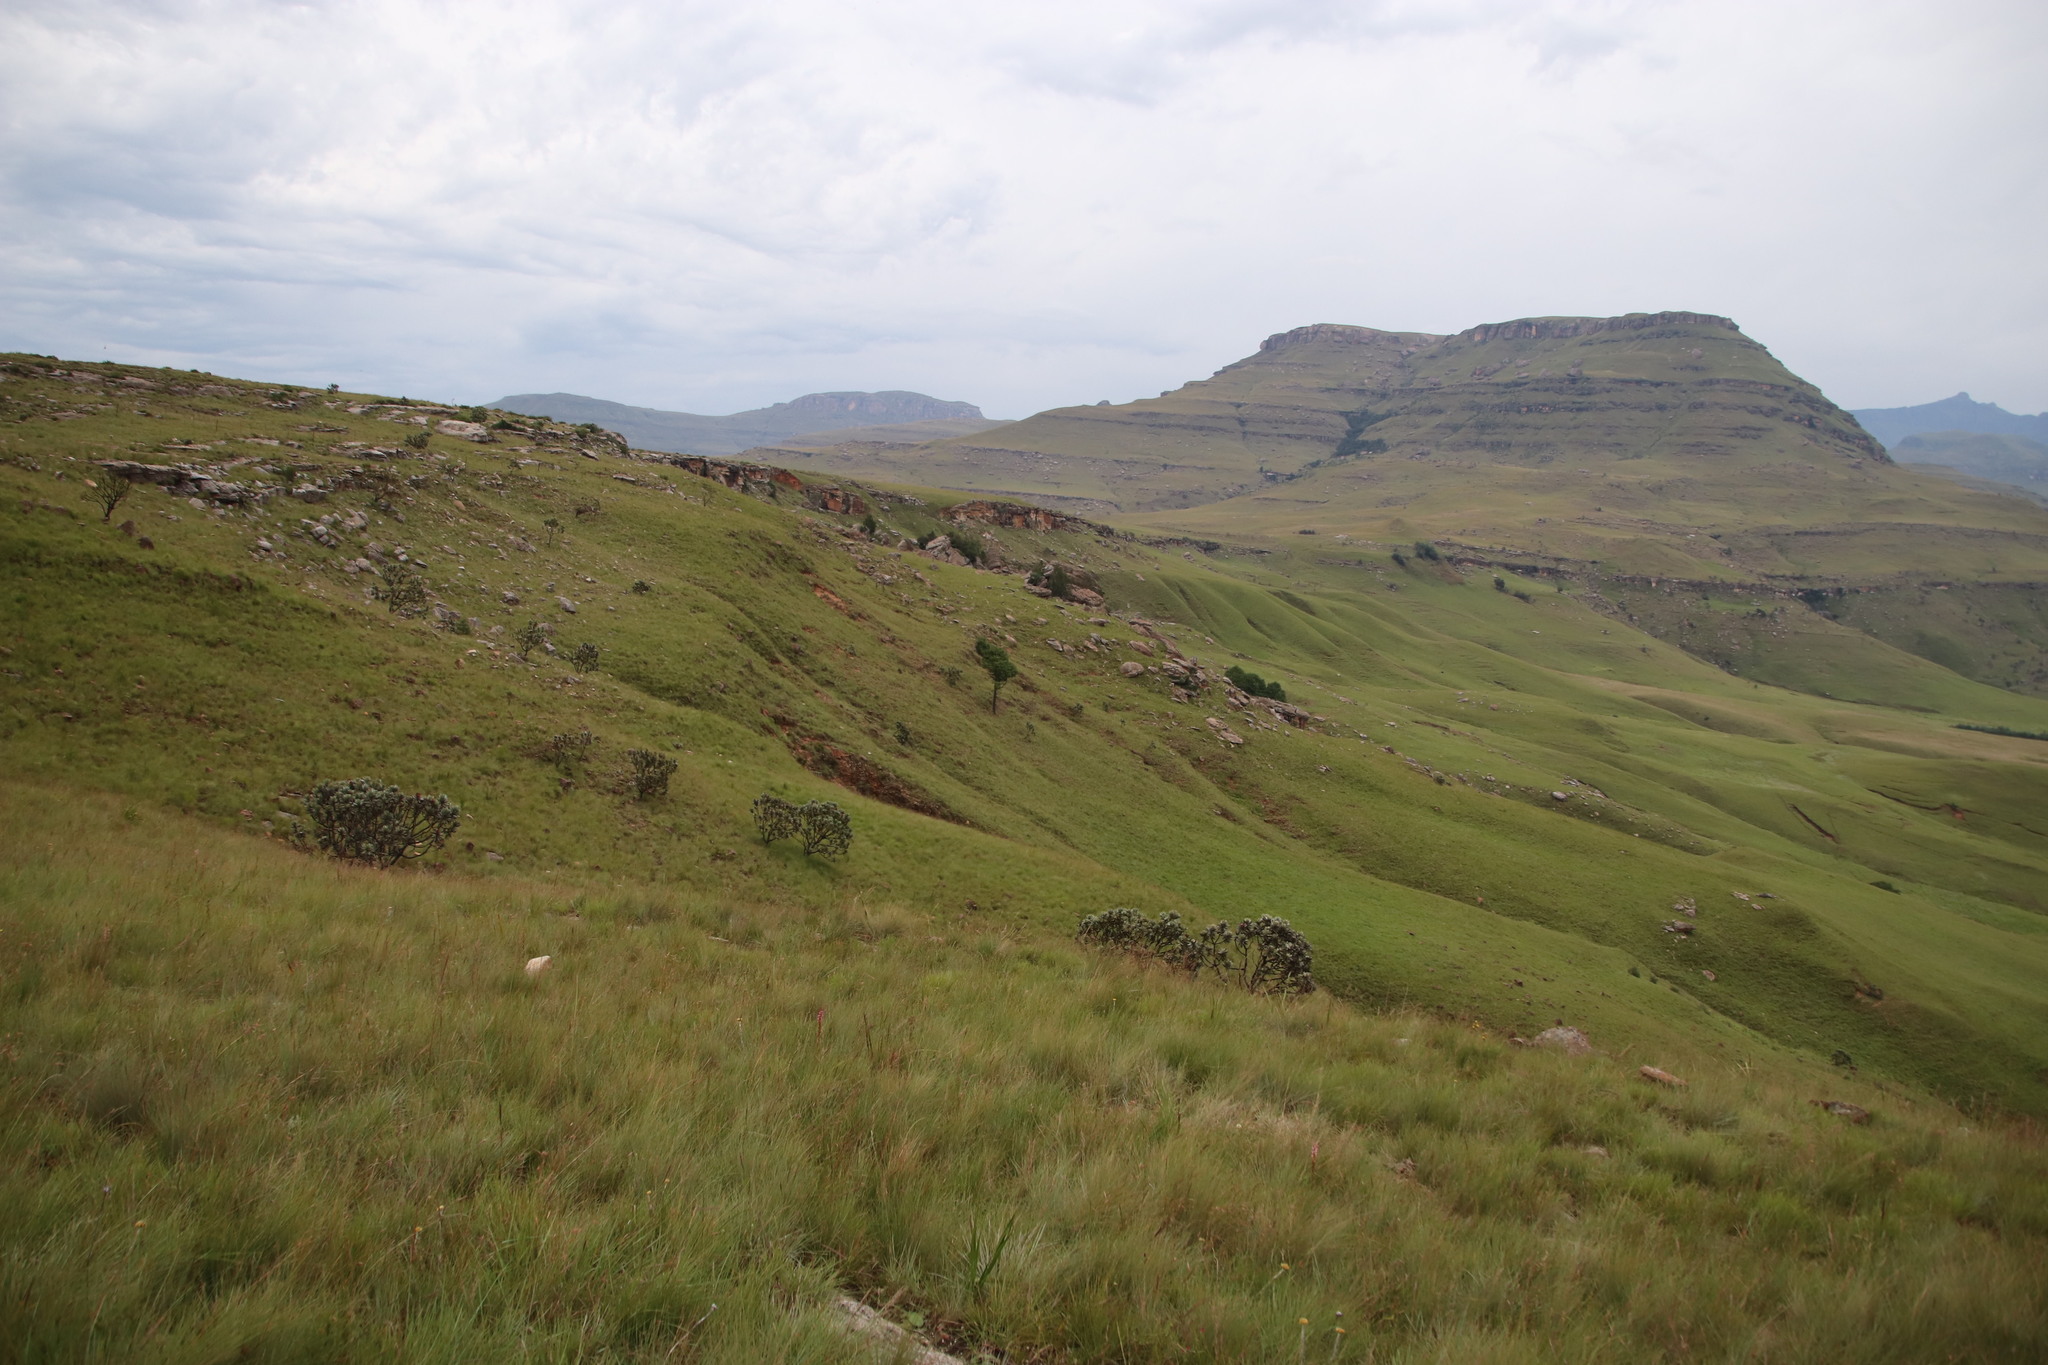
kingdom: Plantae
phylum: Tracheophyta
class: Magnoliopsida
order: Proteales
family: Proteaceae
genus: Protea
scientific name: Protea roupelliae
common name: Silver sugarbush
